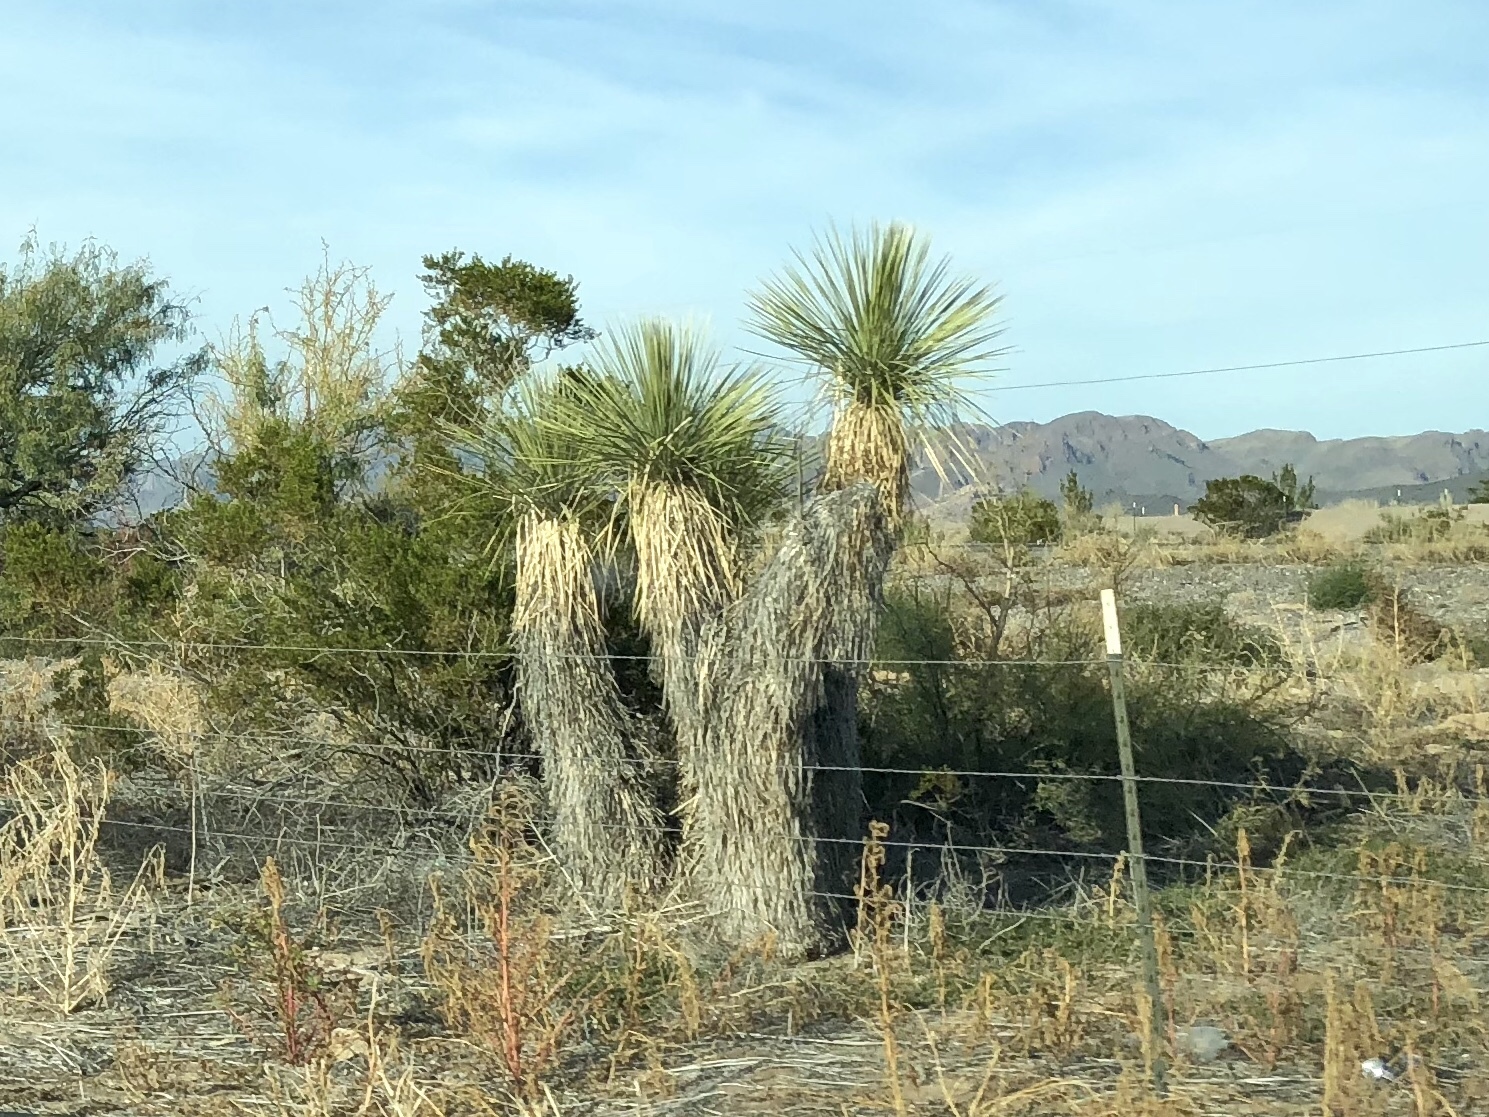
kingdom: Plantae
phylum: Tracheophyta
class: Liliopsida
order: Asparagales
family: Asparagaceae
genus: Yucca
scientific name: Yucca elata
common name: Palmella
